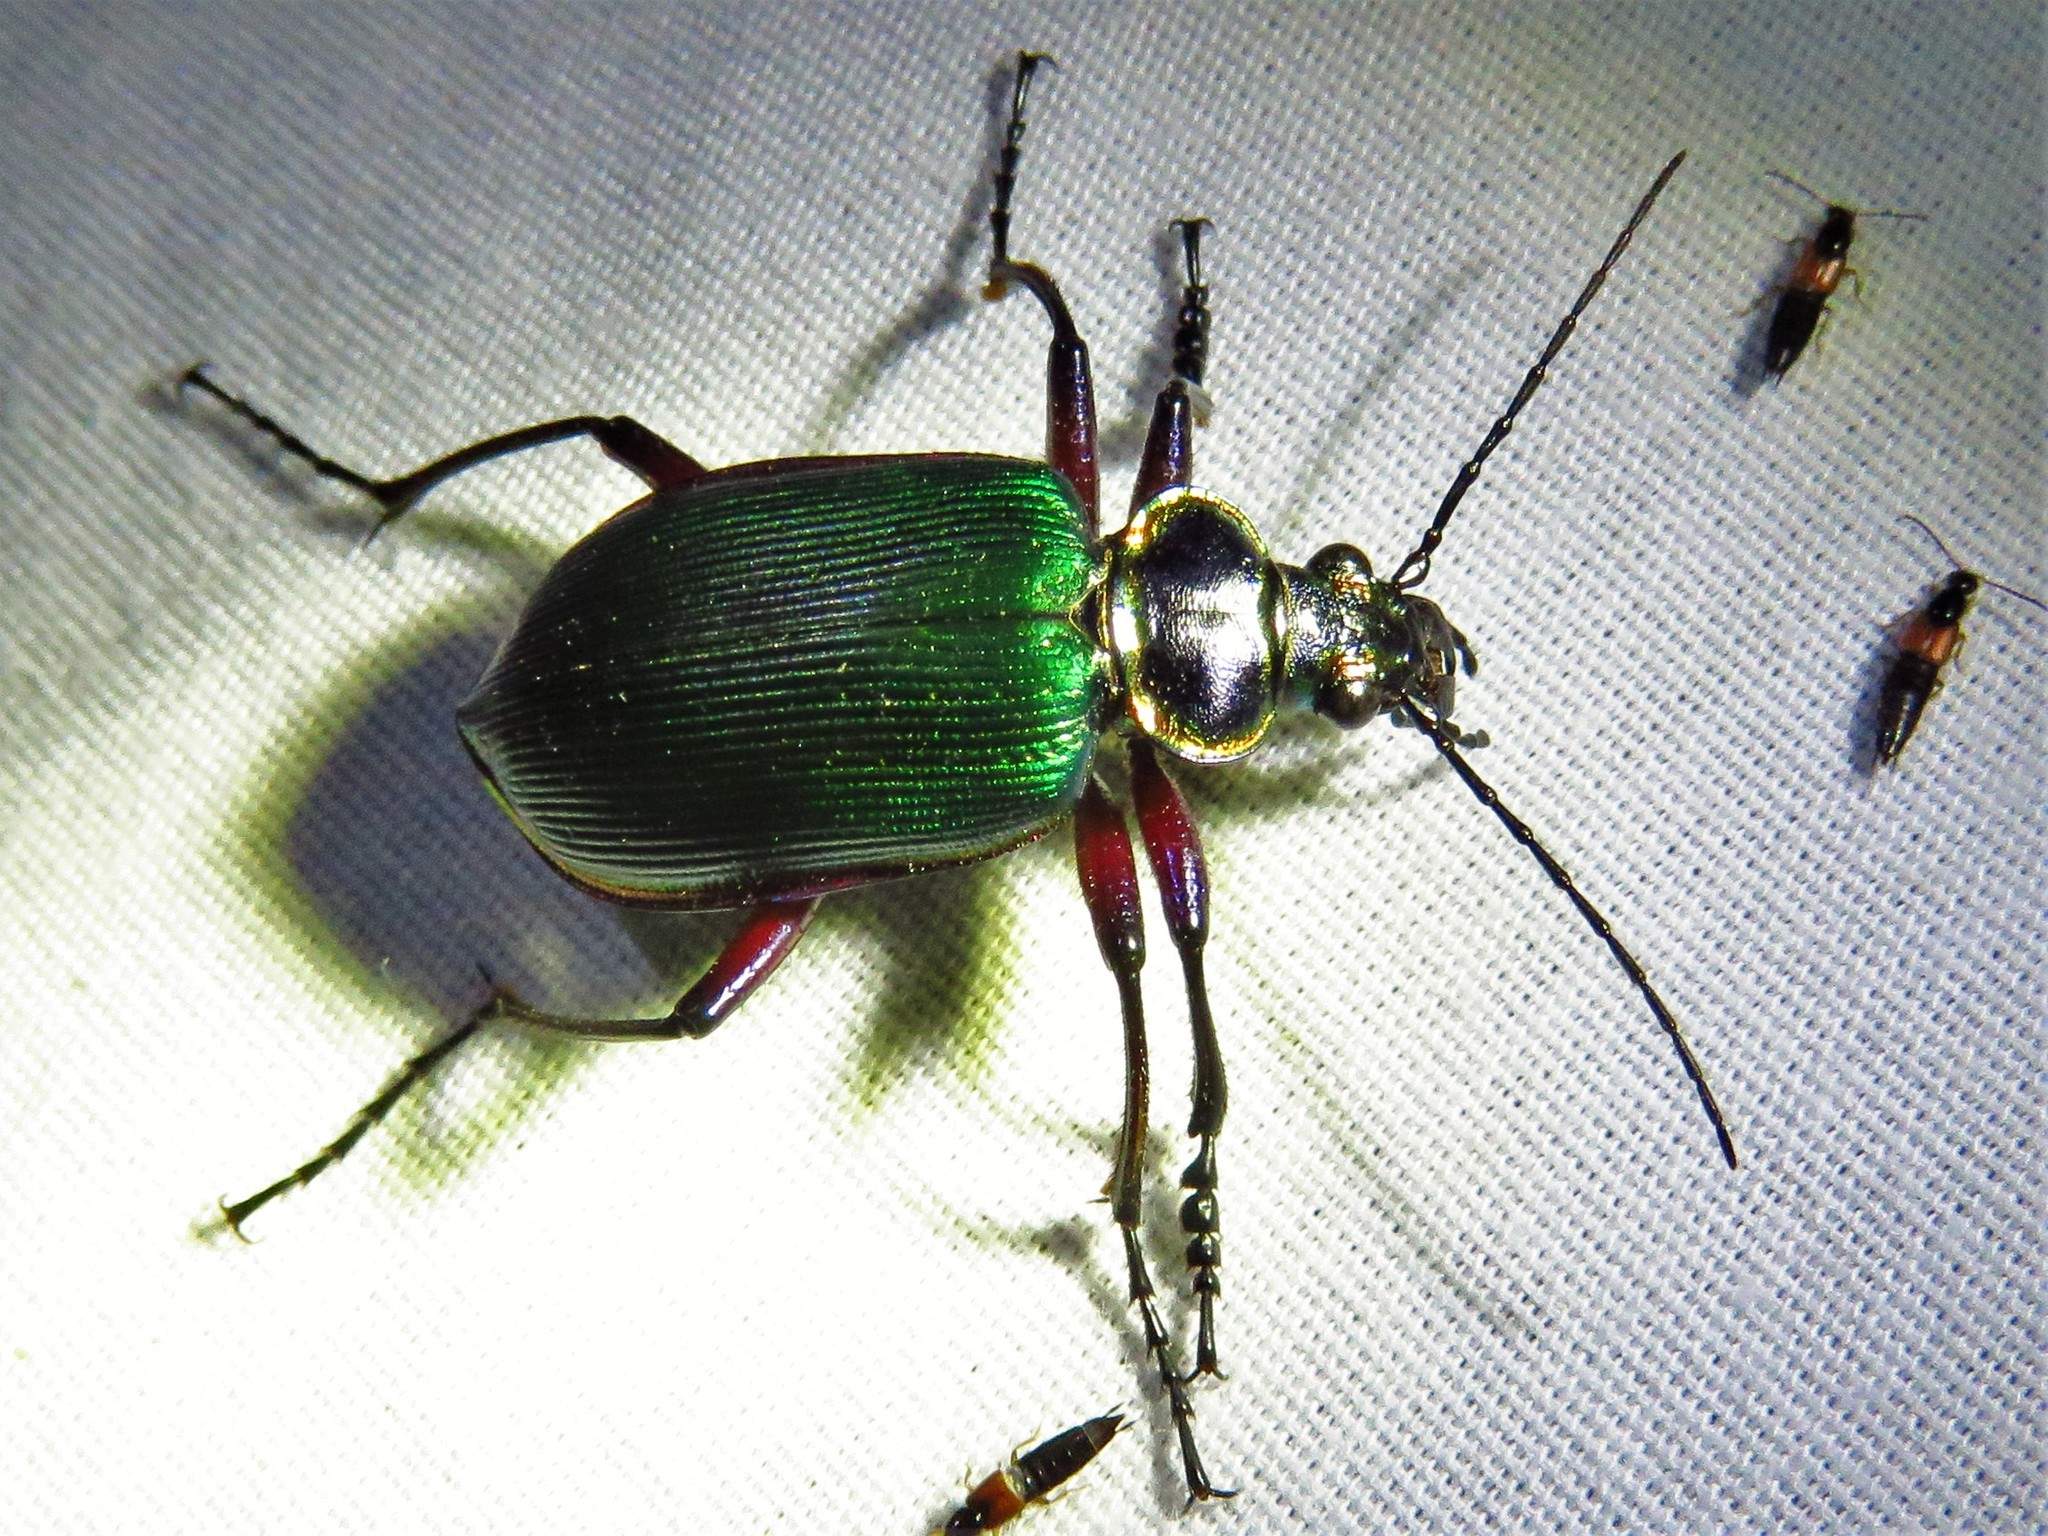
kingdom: Animalia
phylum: Arthropoda
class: Insecta
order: Coleoptera
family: Carabidae
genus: Calosoma
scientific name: Calosoma scrutator
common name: Fiery searcher beetle
